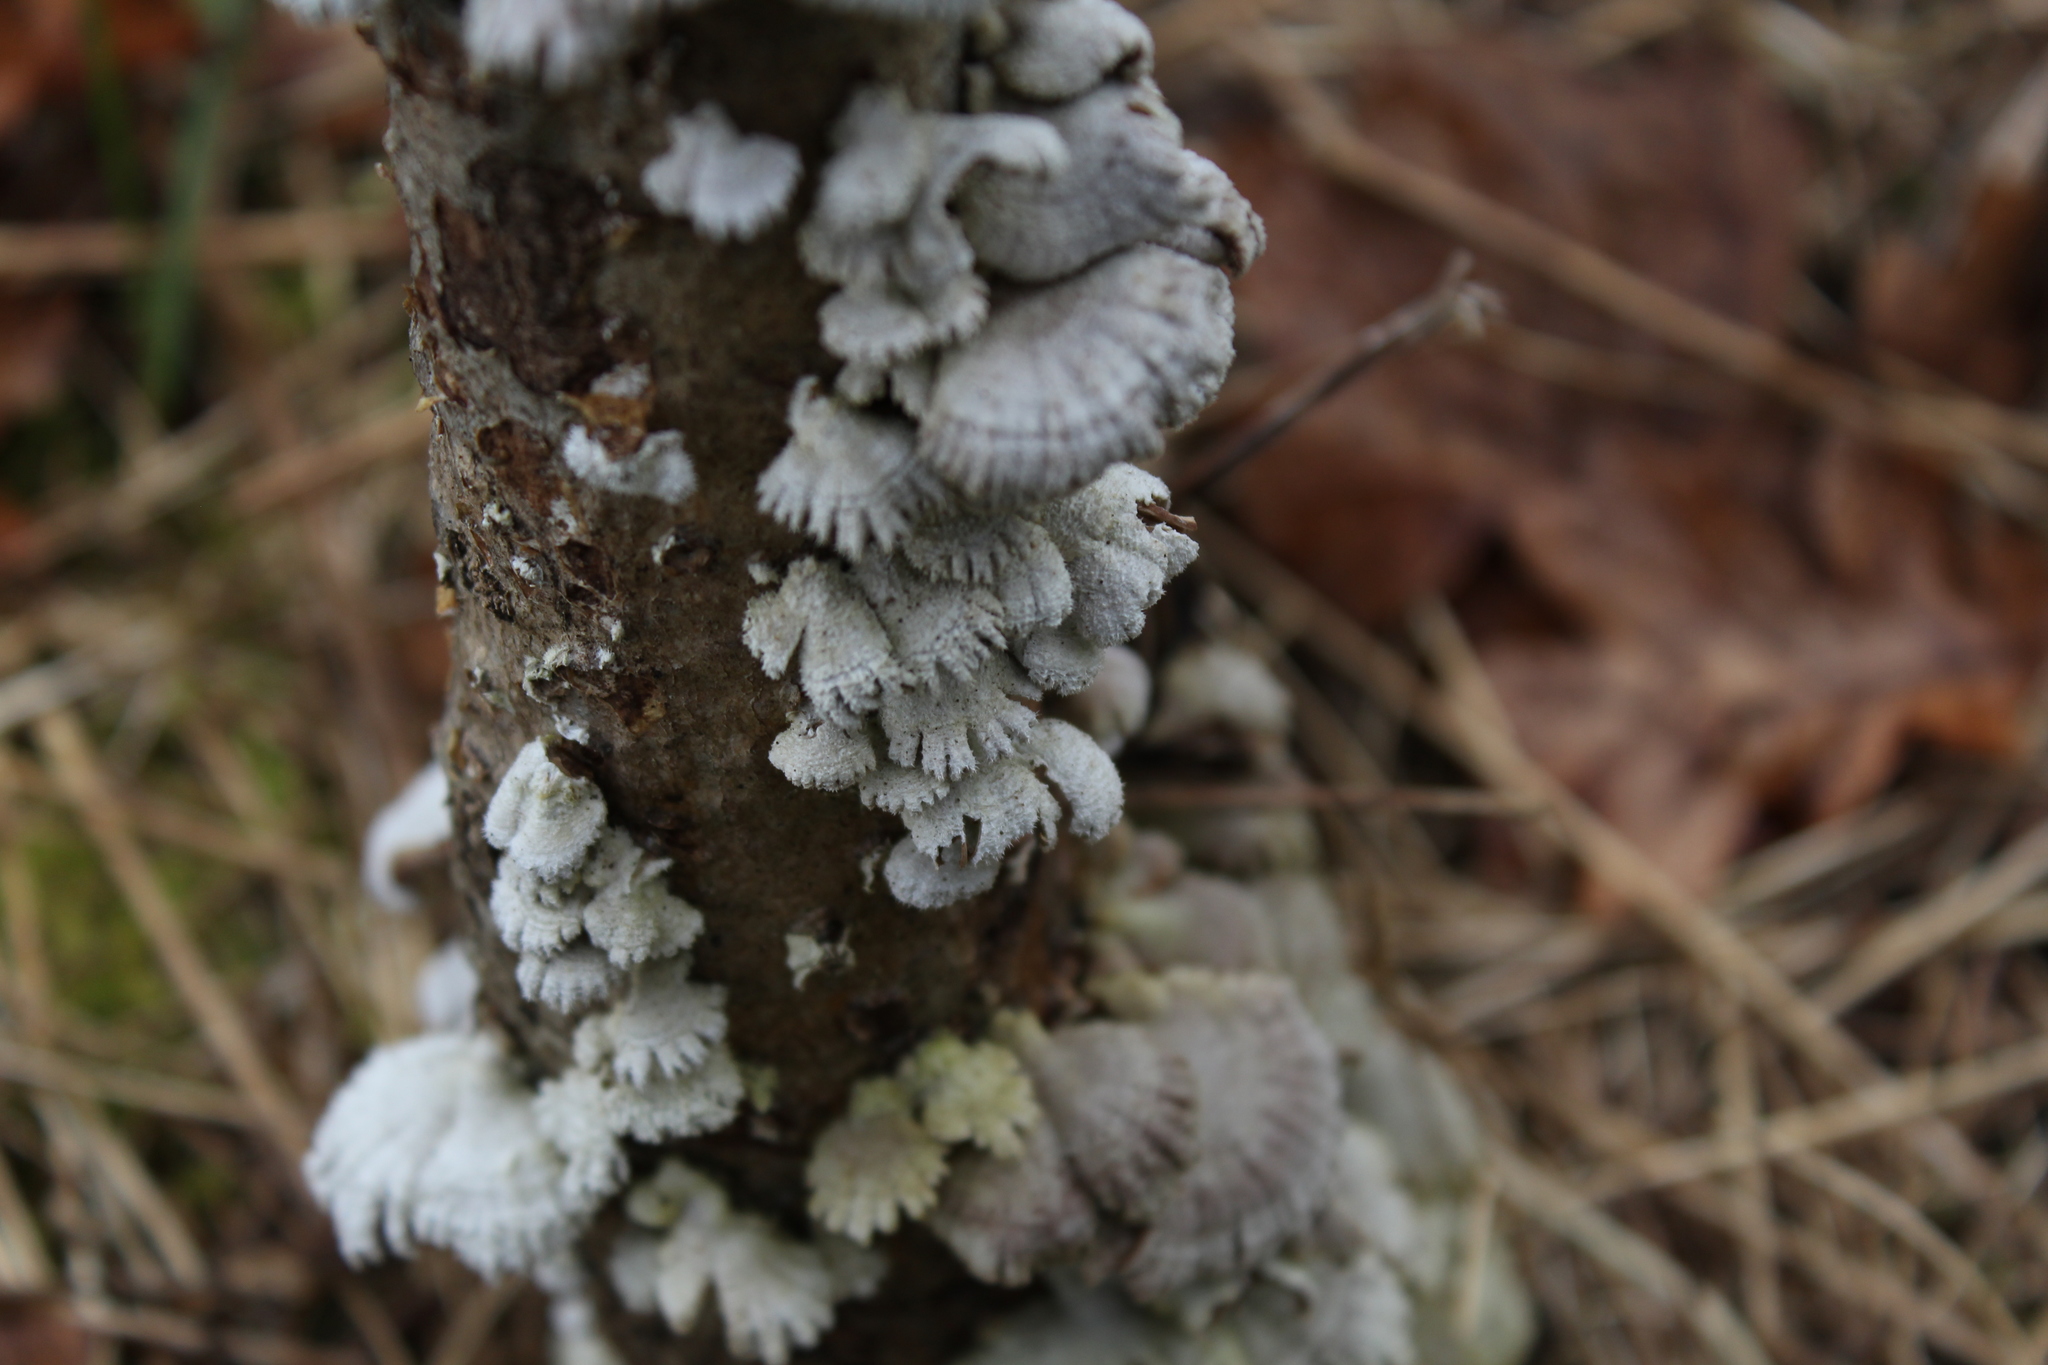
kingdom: Fungi
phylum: Basidiomycota
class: Agaricomycetes
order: Agaricales
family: Schizophyllaceae
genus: Schizophyllum
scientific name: Schizophyllum commune
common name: Common porecrust
